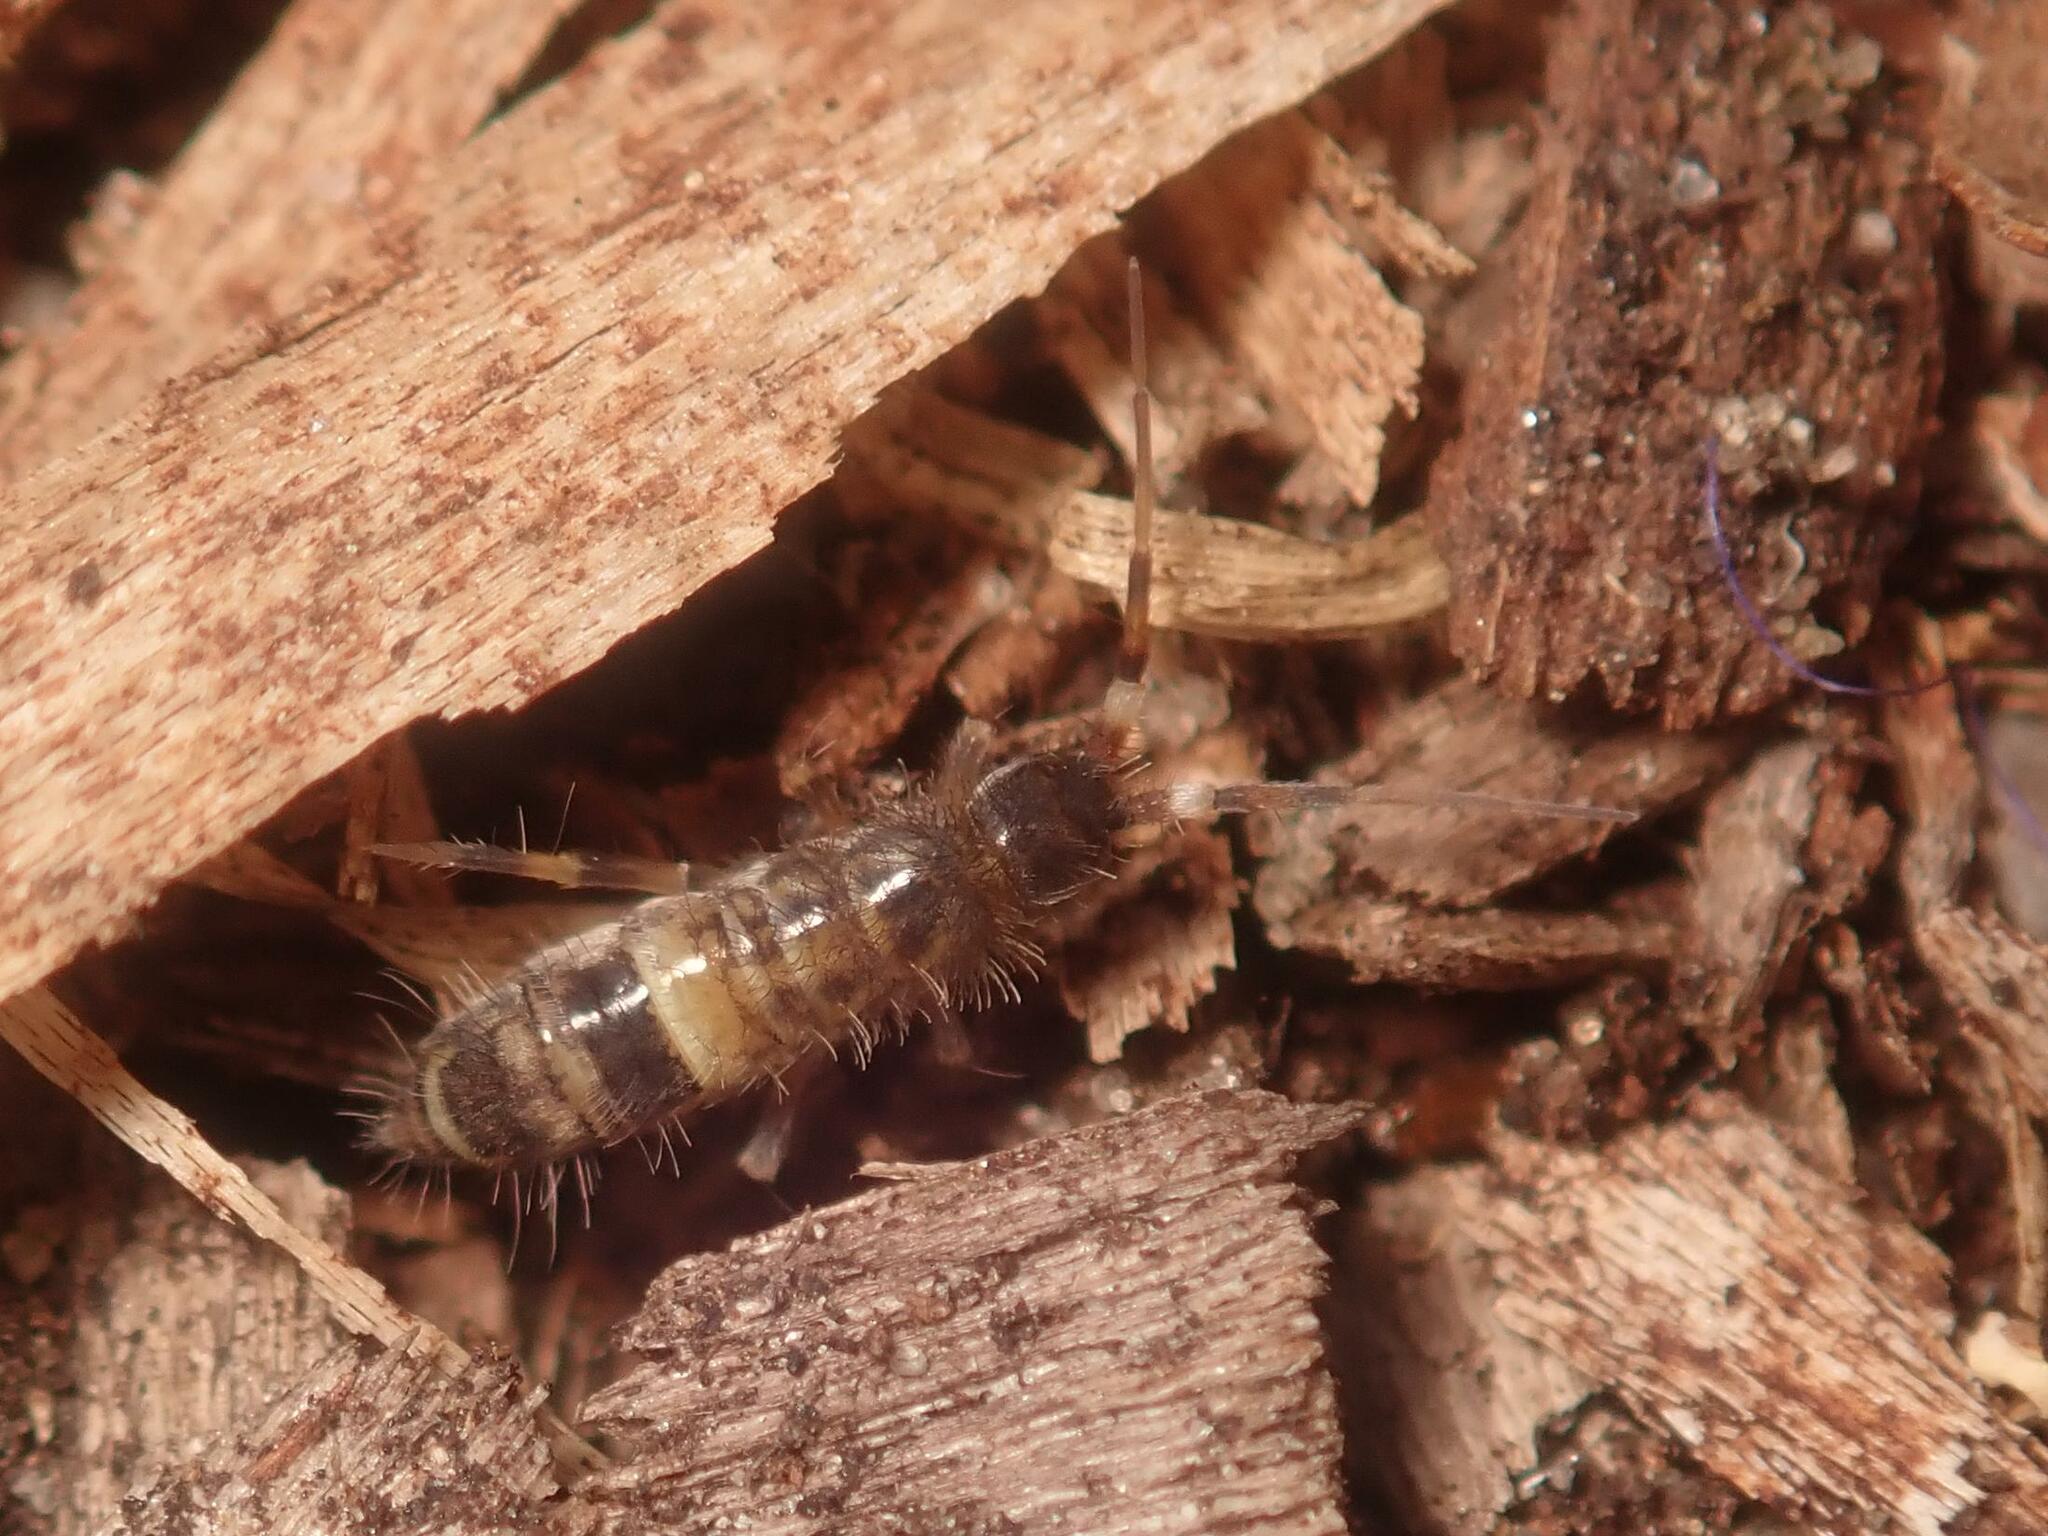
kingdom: Animalia
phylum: Arthropoda
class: Collembola
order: Entomobryomorpha
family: Orchesellidae
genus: Orchesella
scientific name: Orchesella cincta
